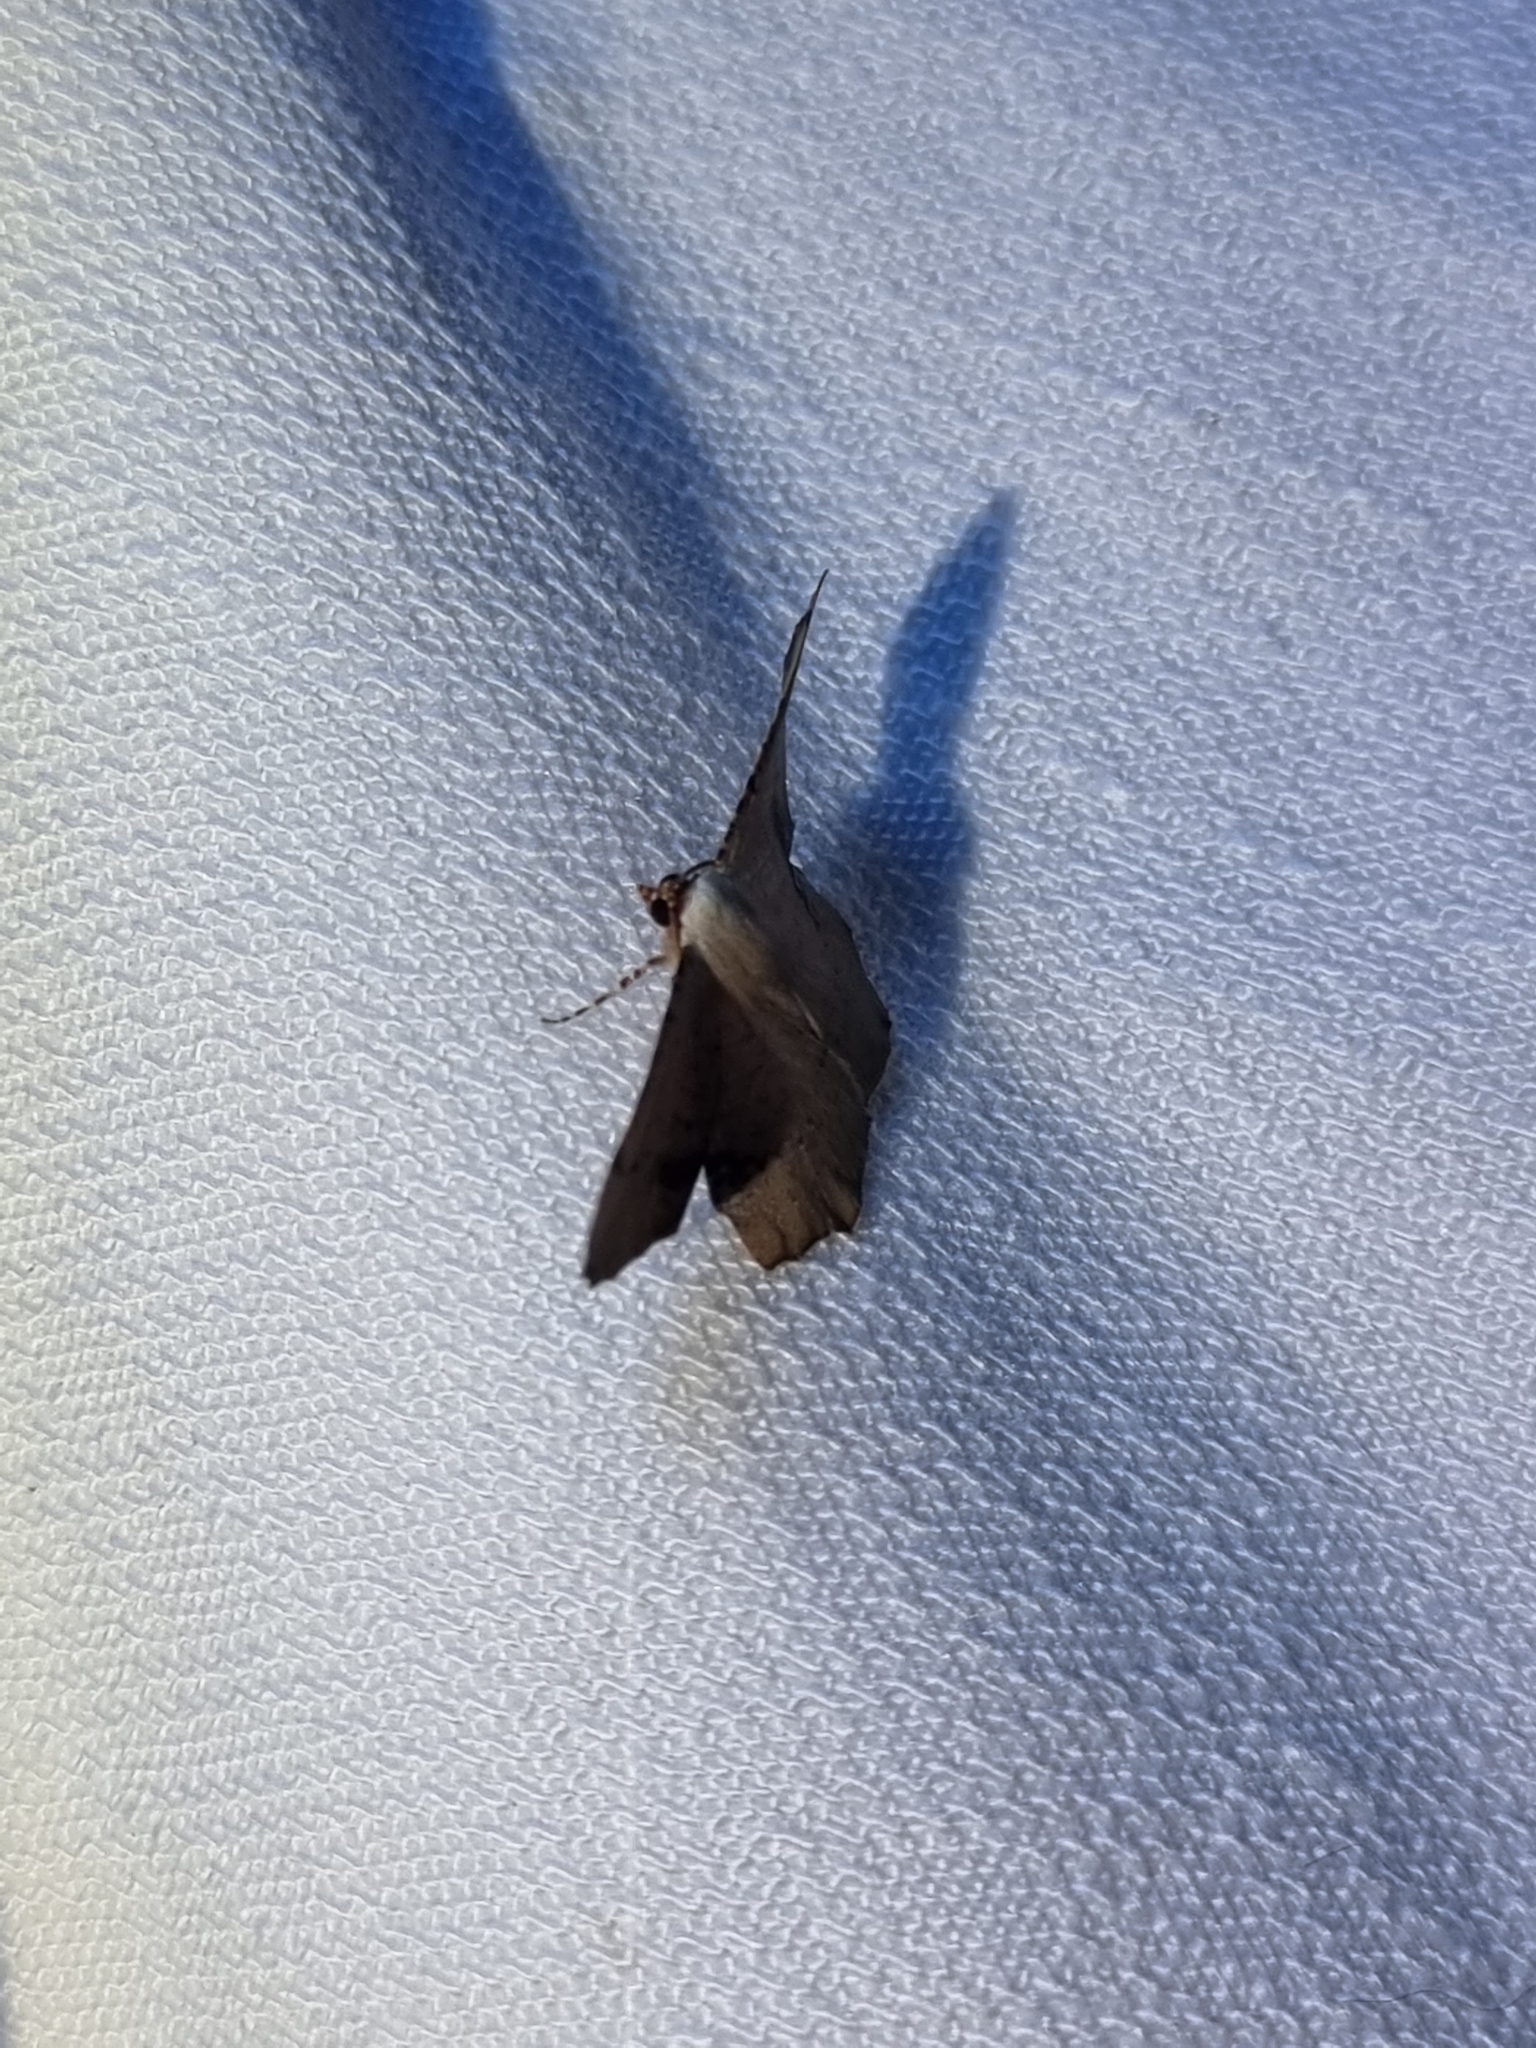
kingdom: Animalia
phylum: Arthropoda
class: Insecta
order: Lepidoptera
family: Geometridae
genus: Cernia
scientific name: Cernia amyclaria
